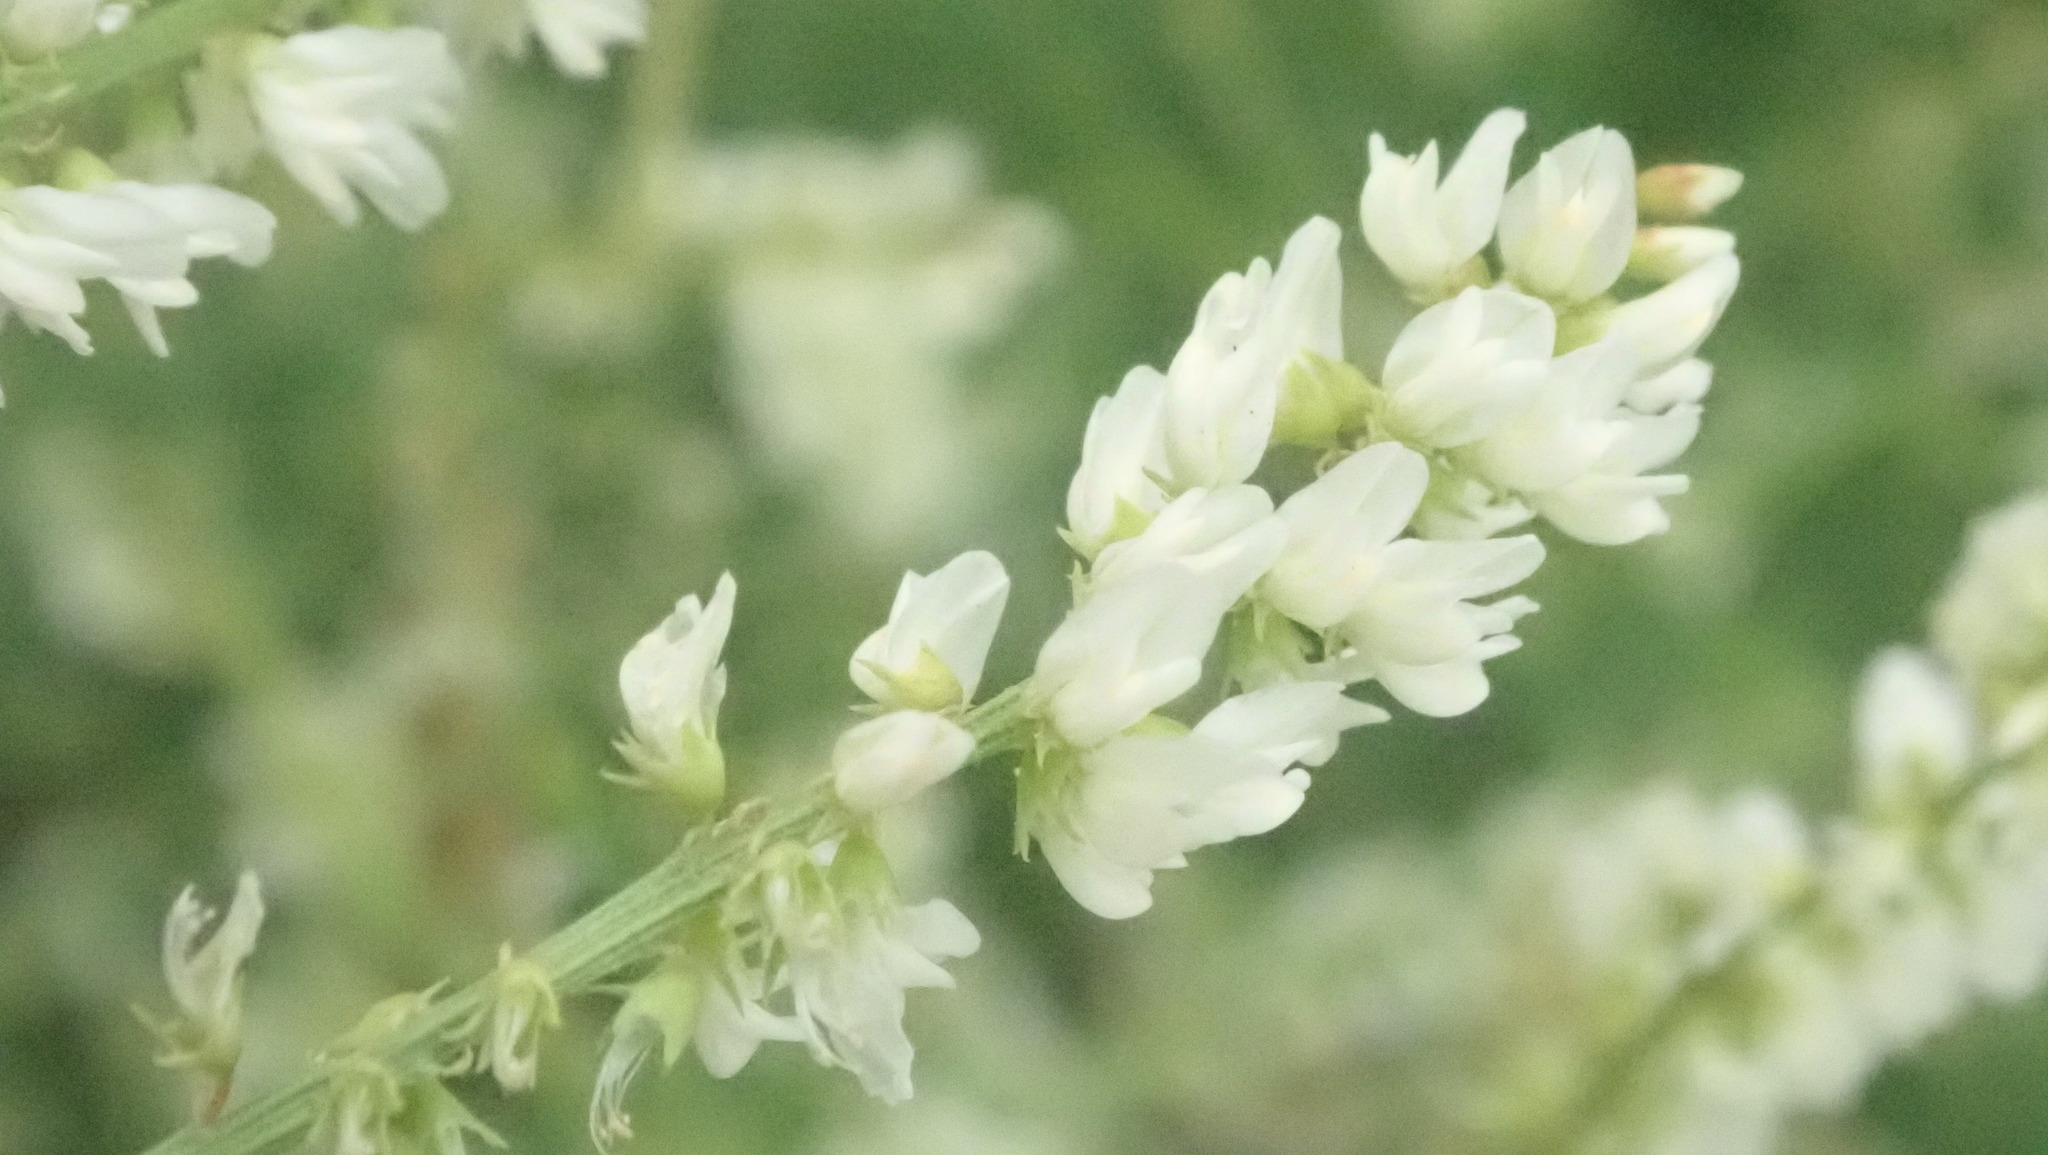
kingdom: Plantae
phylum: Tracheophyta
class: Magnoliopsida
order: Fabales
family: Fabaceae
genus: Melilotus
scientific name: Melilotus albus
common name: White melilot
